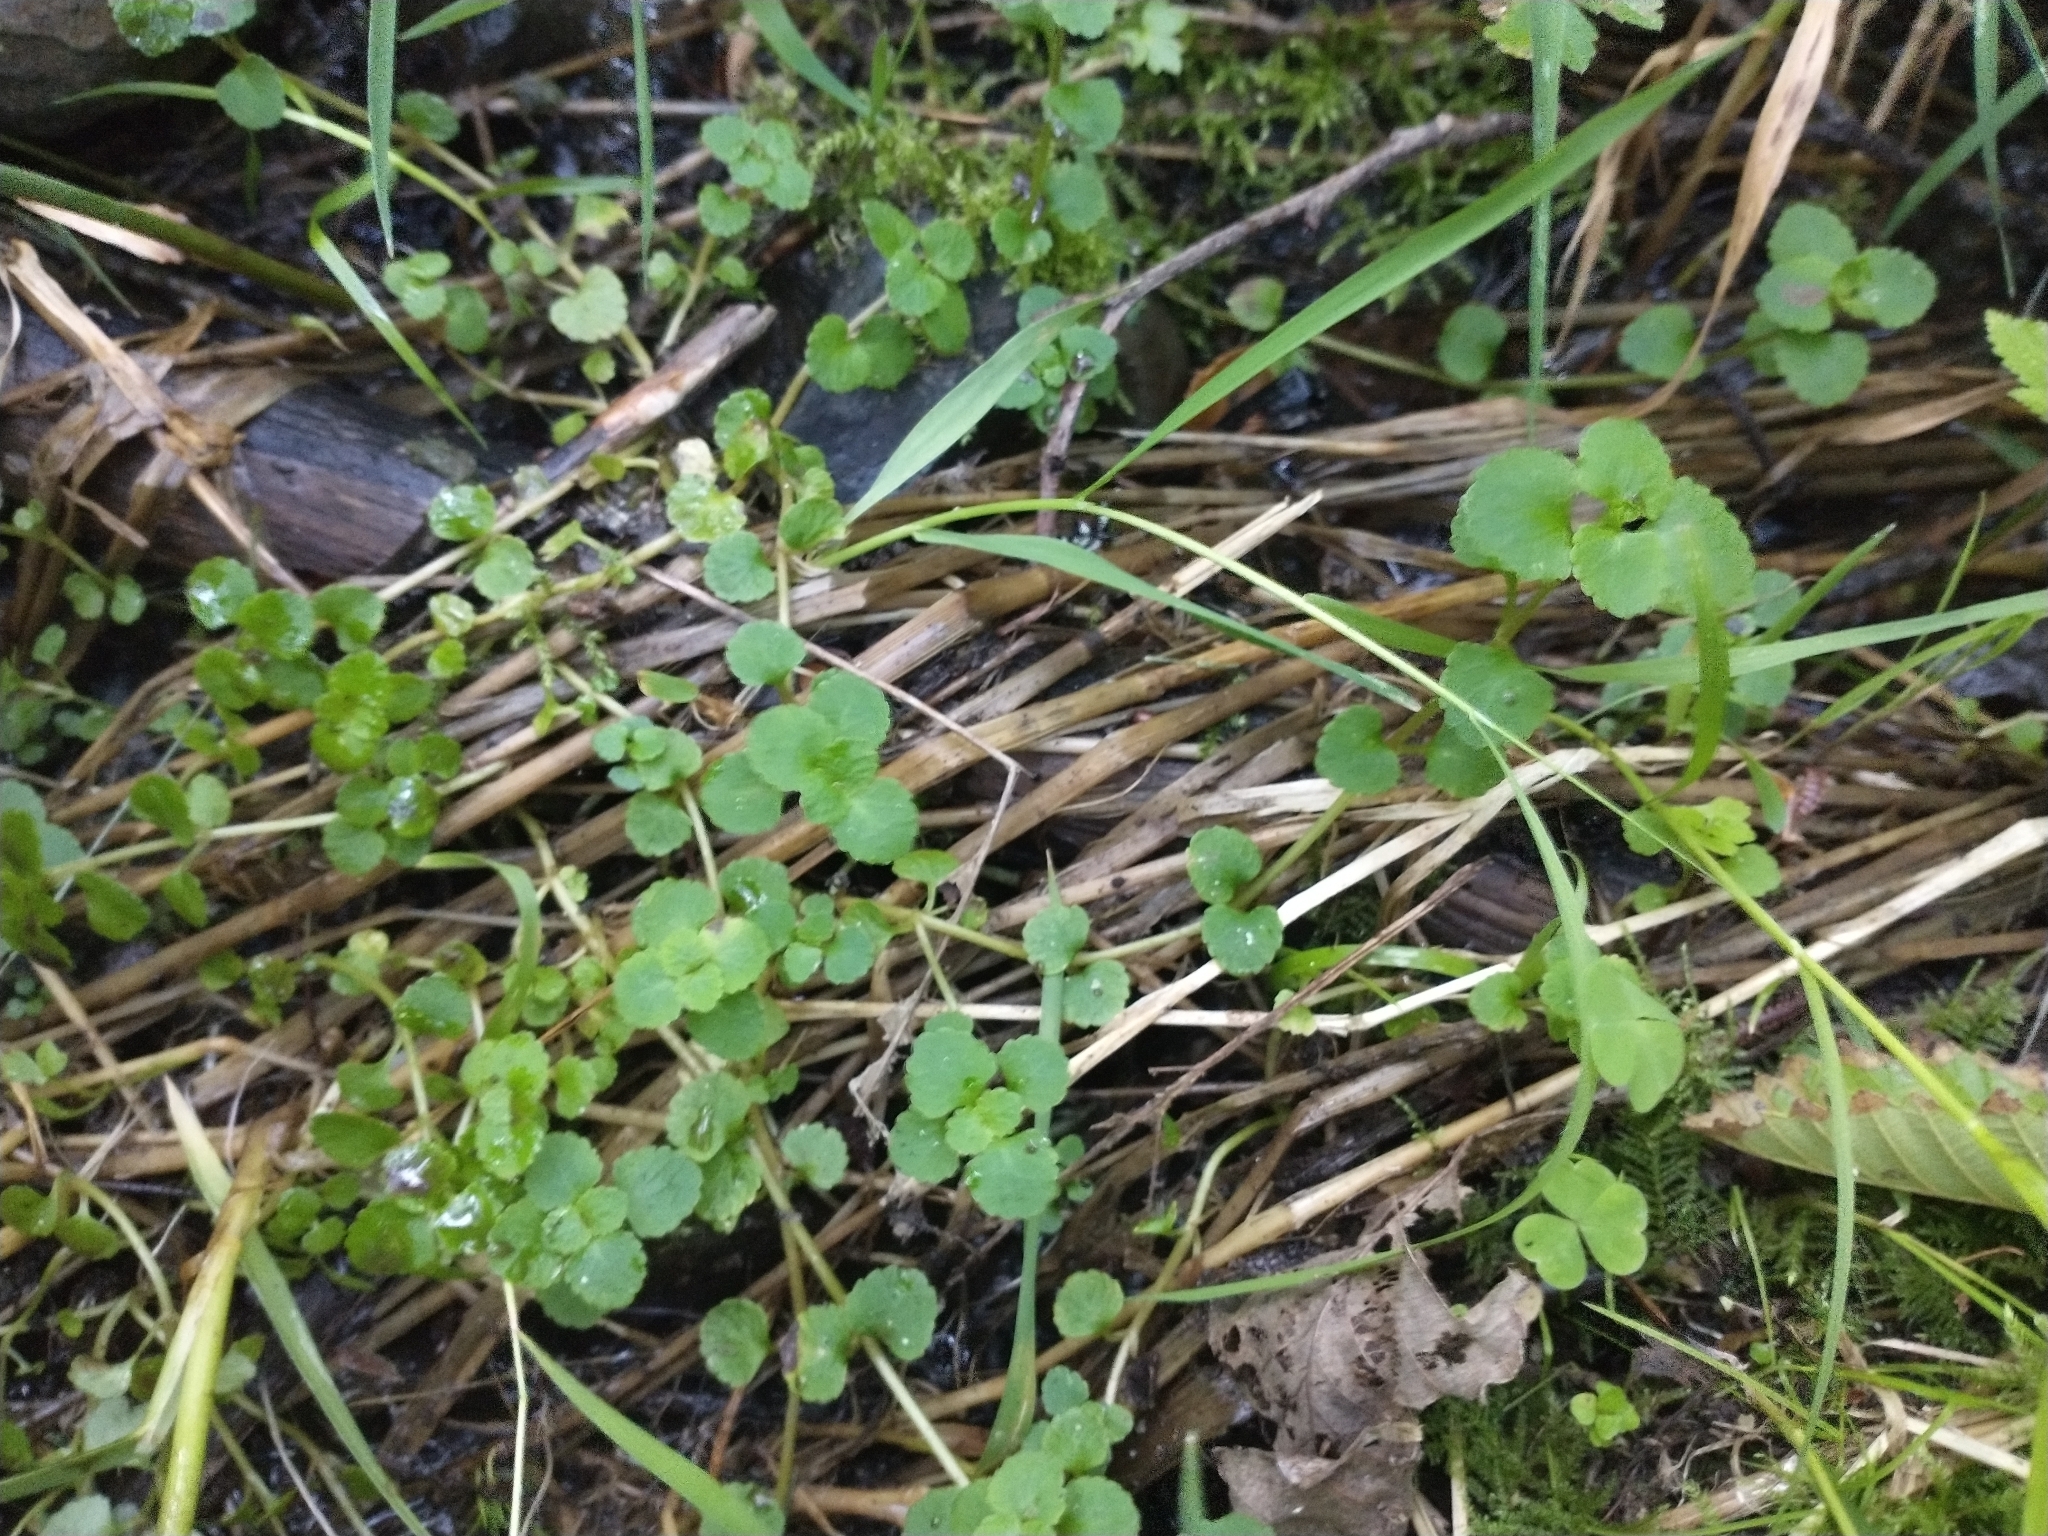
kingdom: Plantae
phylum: Tracheophyta
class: Magnoliopsida
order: Saxifragales
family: Saxifragaceae
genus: Chrysosplenium
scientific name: Chrysosplenium glechomifolium
